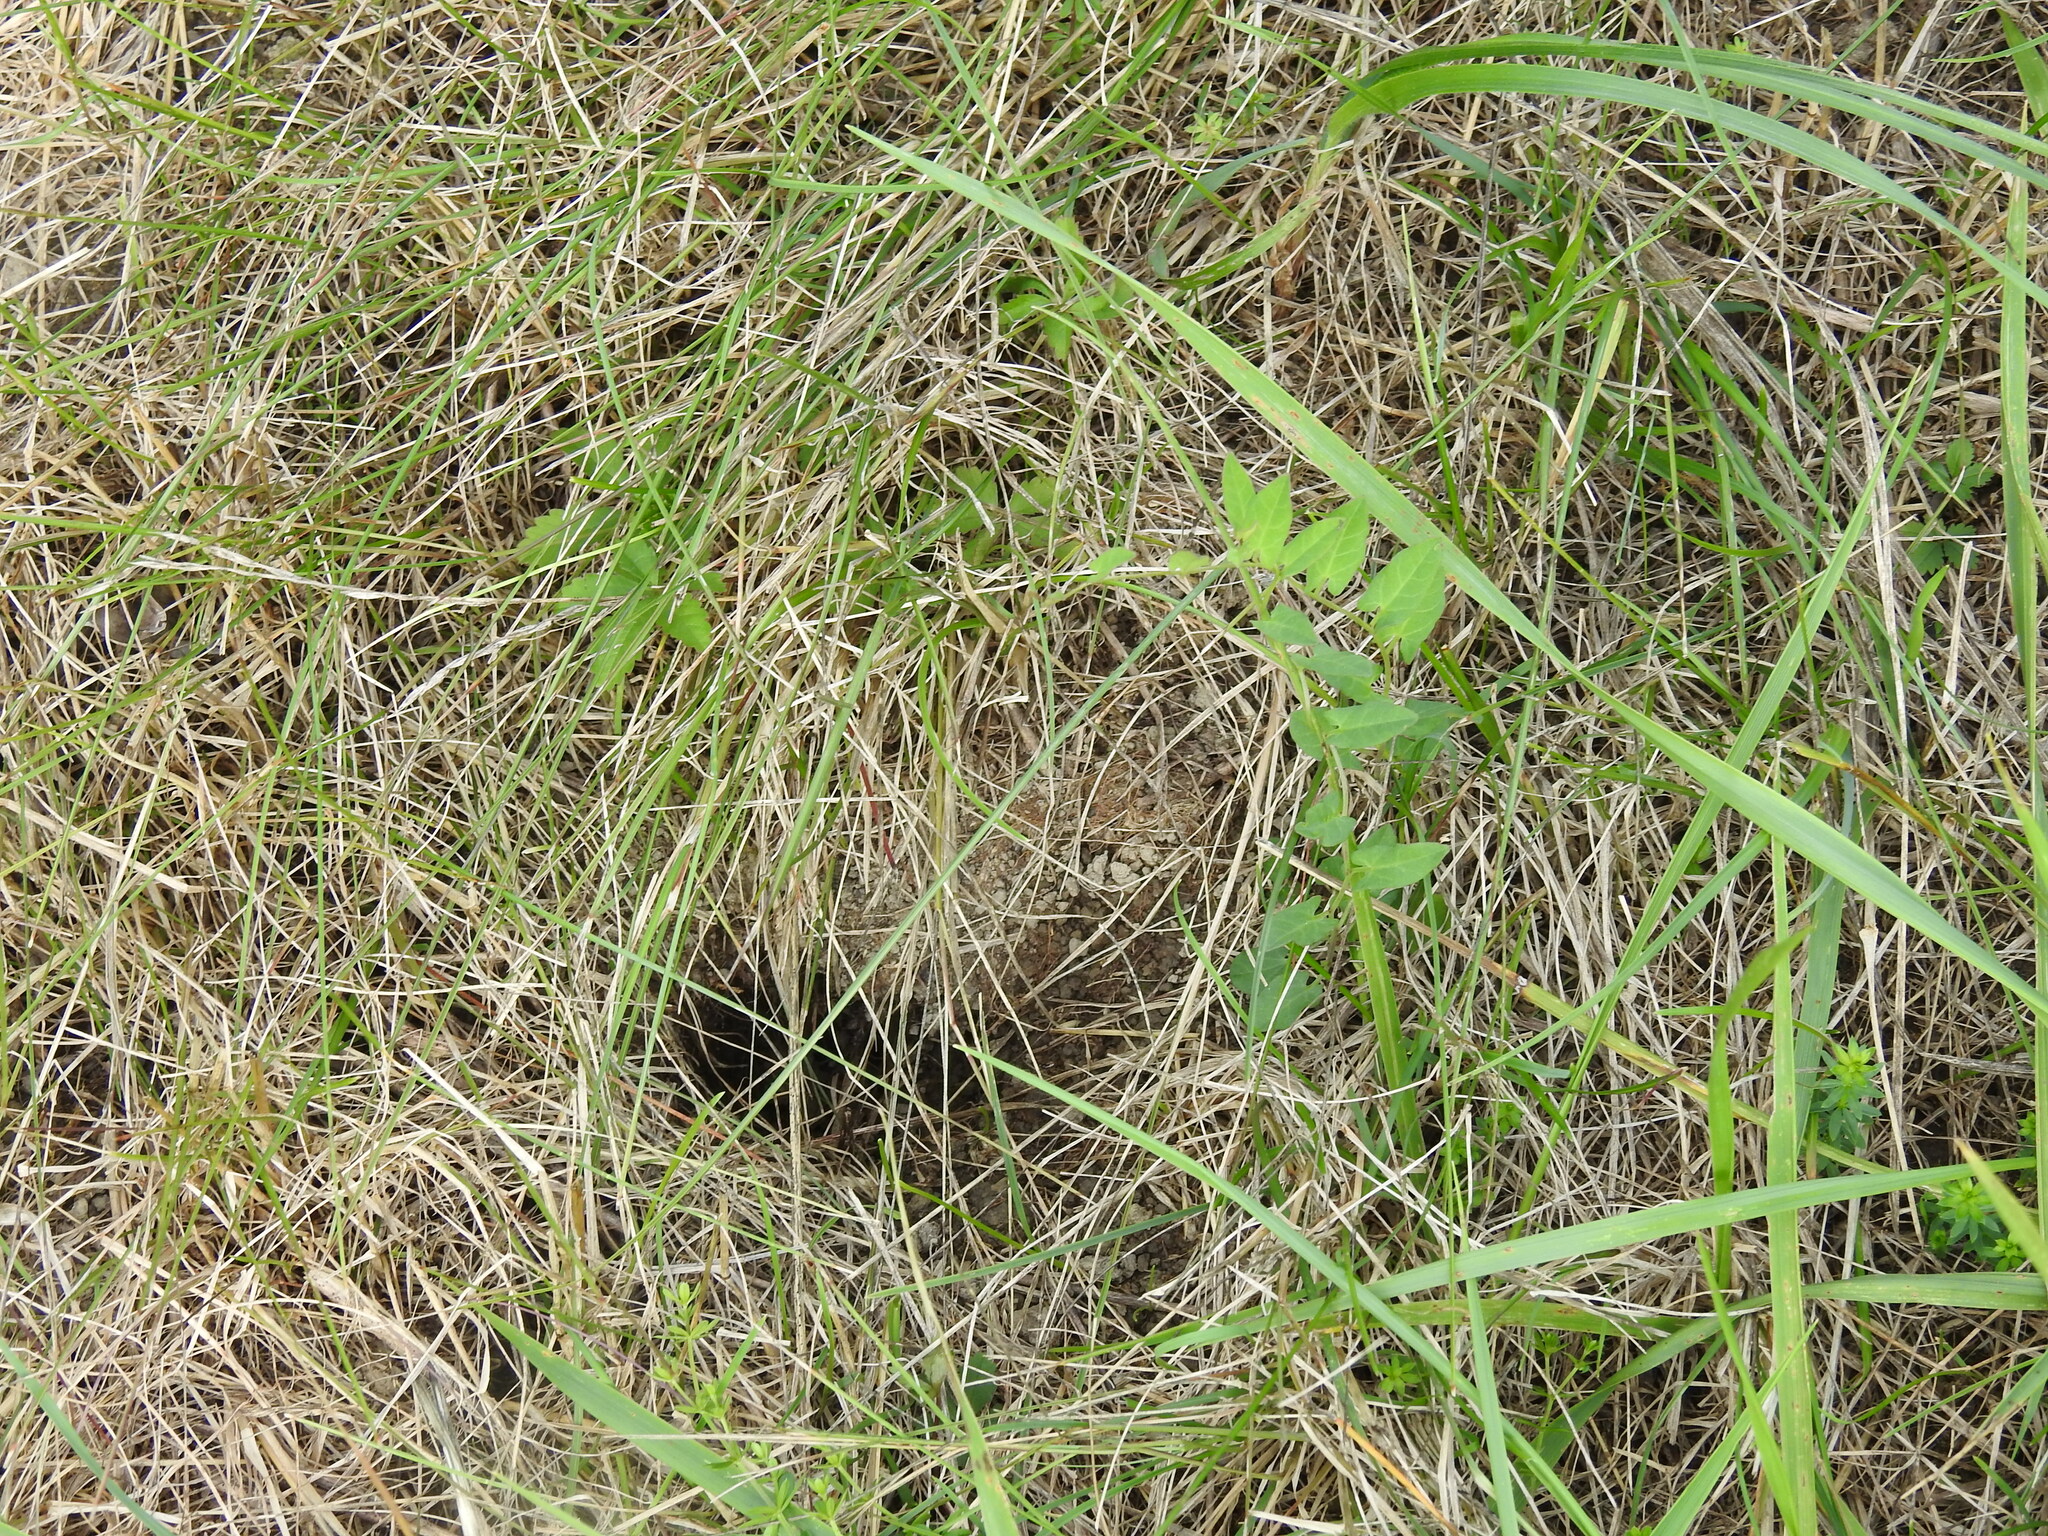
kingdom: Animalia
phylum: Chordata
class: Mammalia
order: Rodentia
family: Cricetidae
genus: Microtus
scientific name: Microtus arvalis
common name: Common vole
